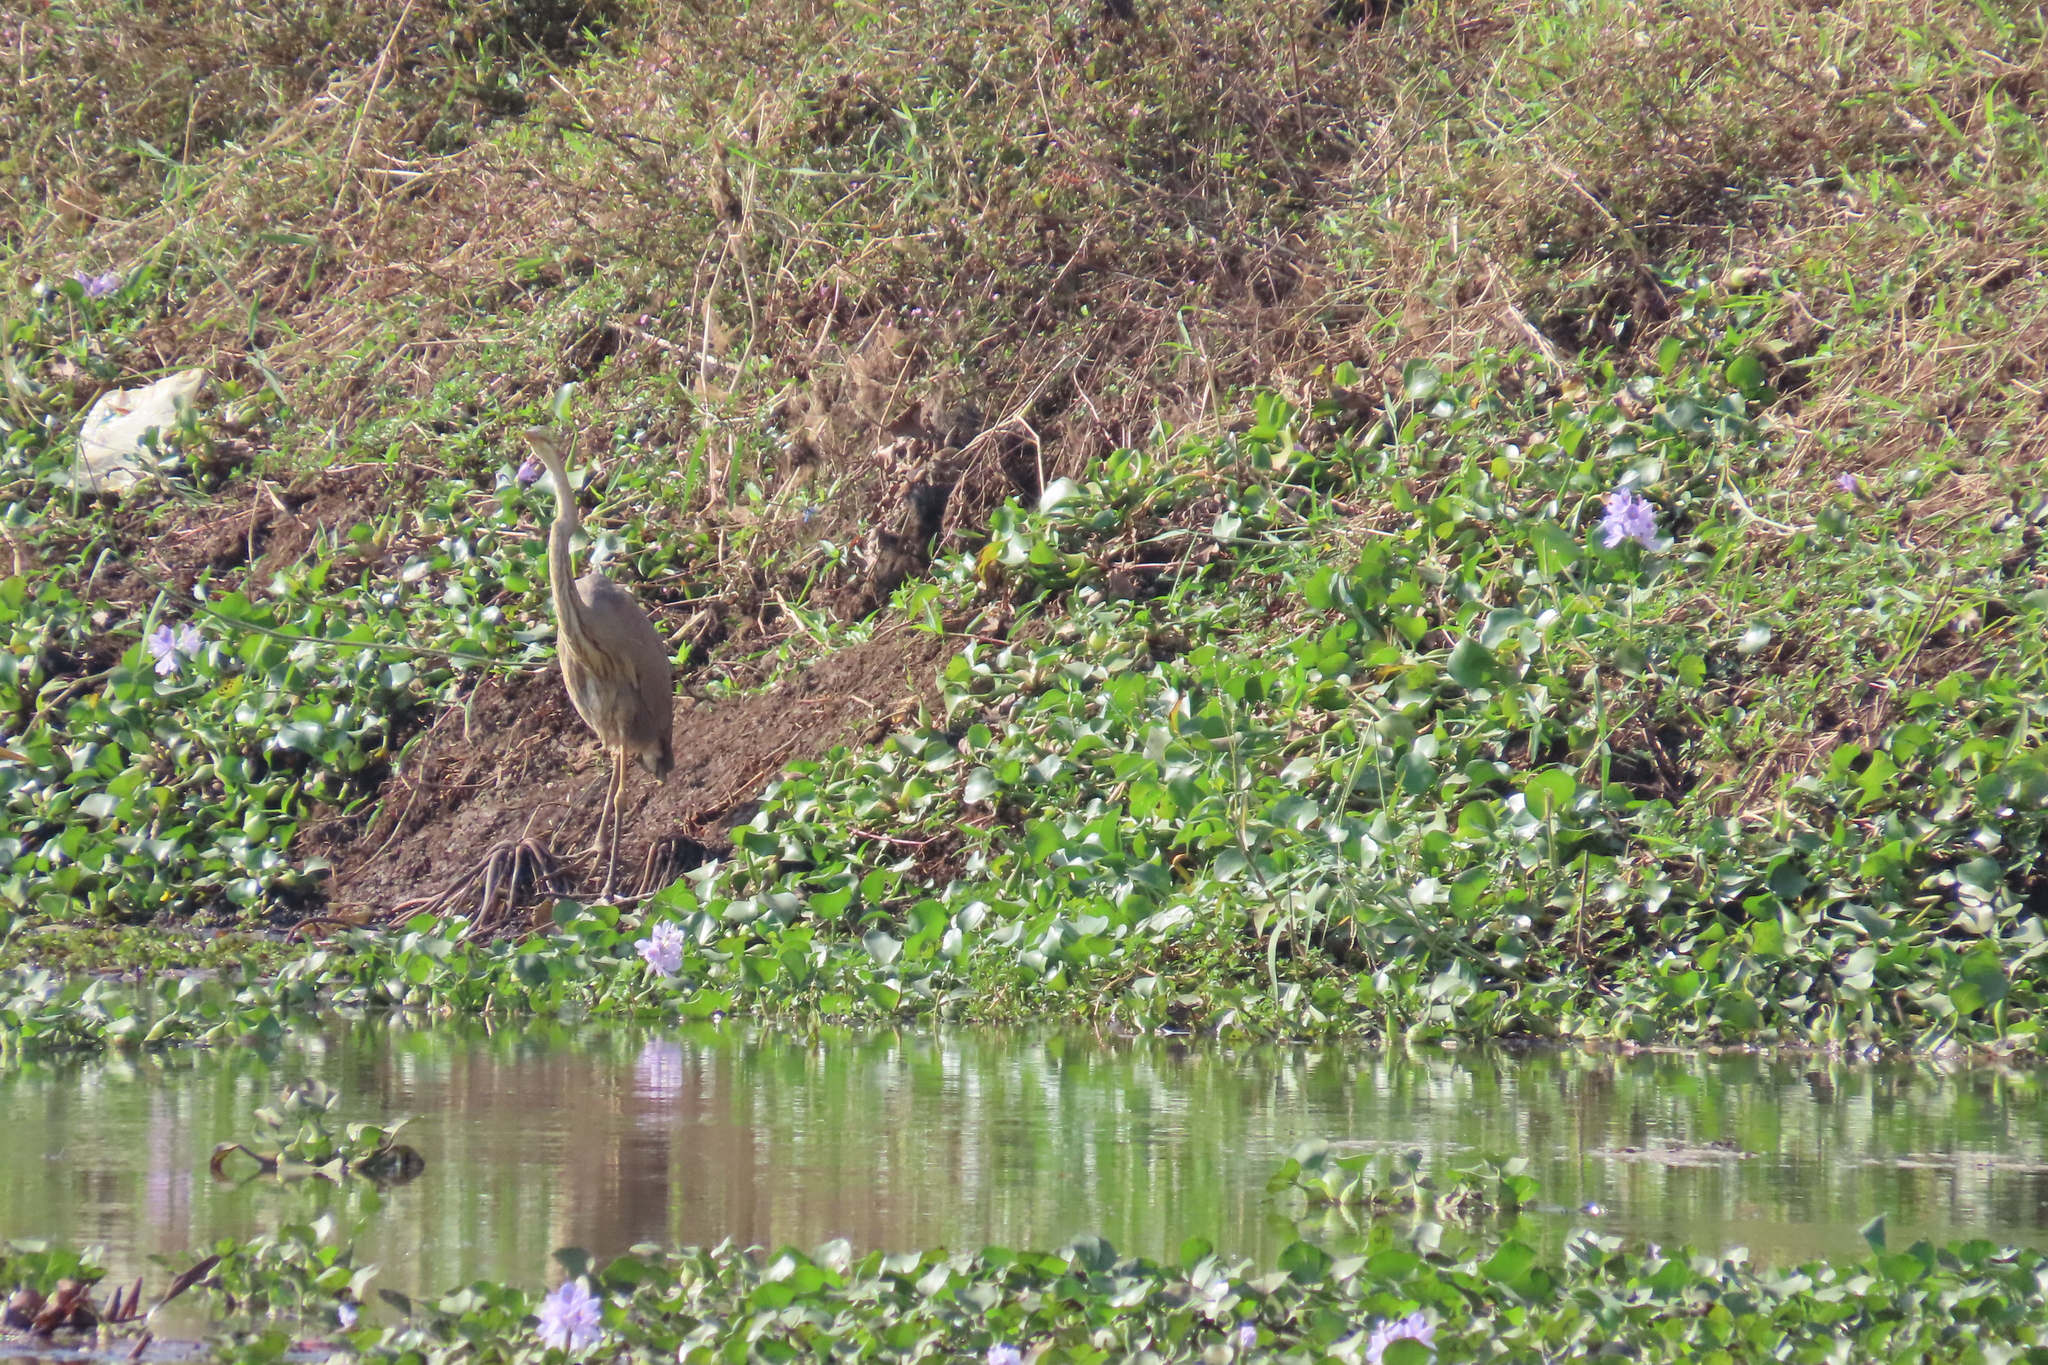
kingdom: Animalia
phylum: Chordata
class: Aves
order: Pelecaniformes
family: Ardeidae
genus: Ardea
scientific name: Ardea purpurea
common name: Purple heron
